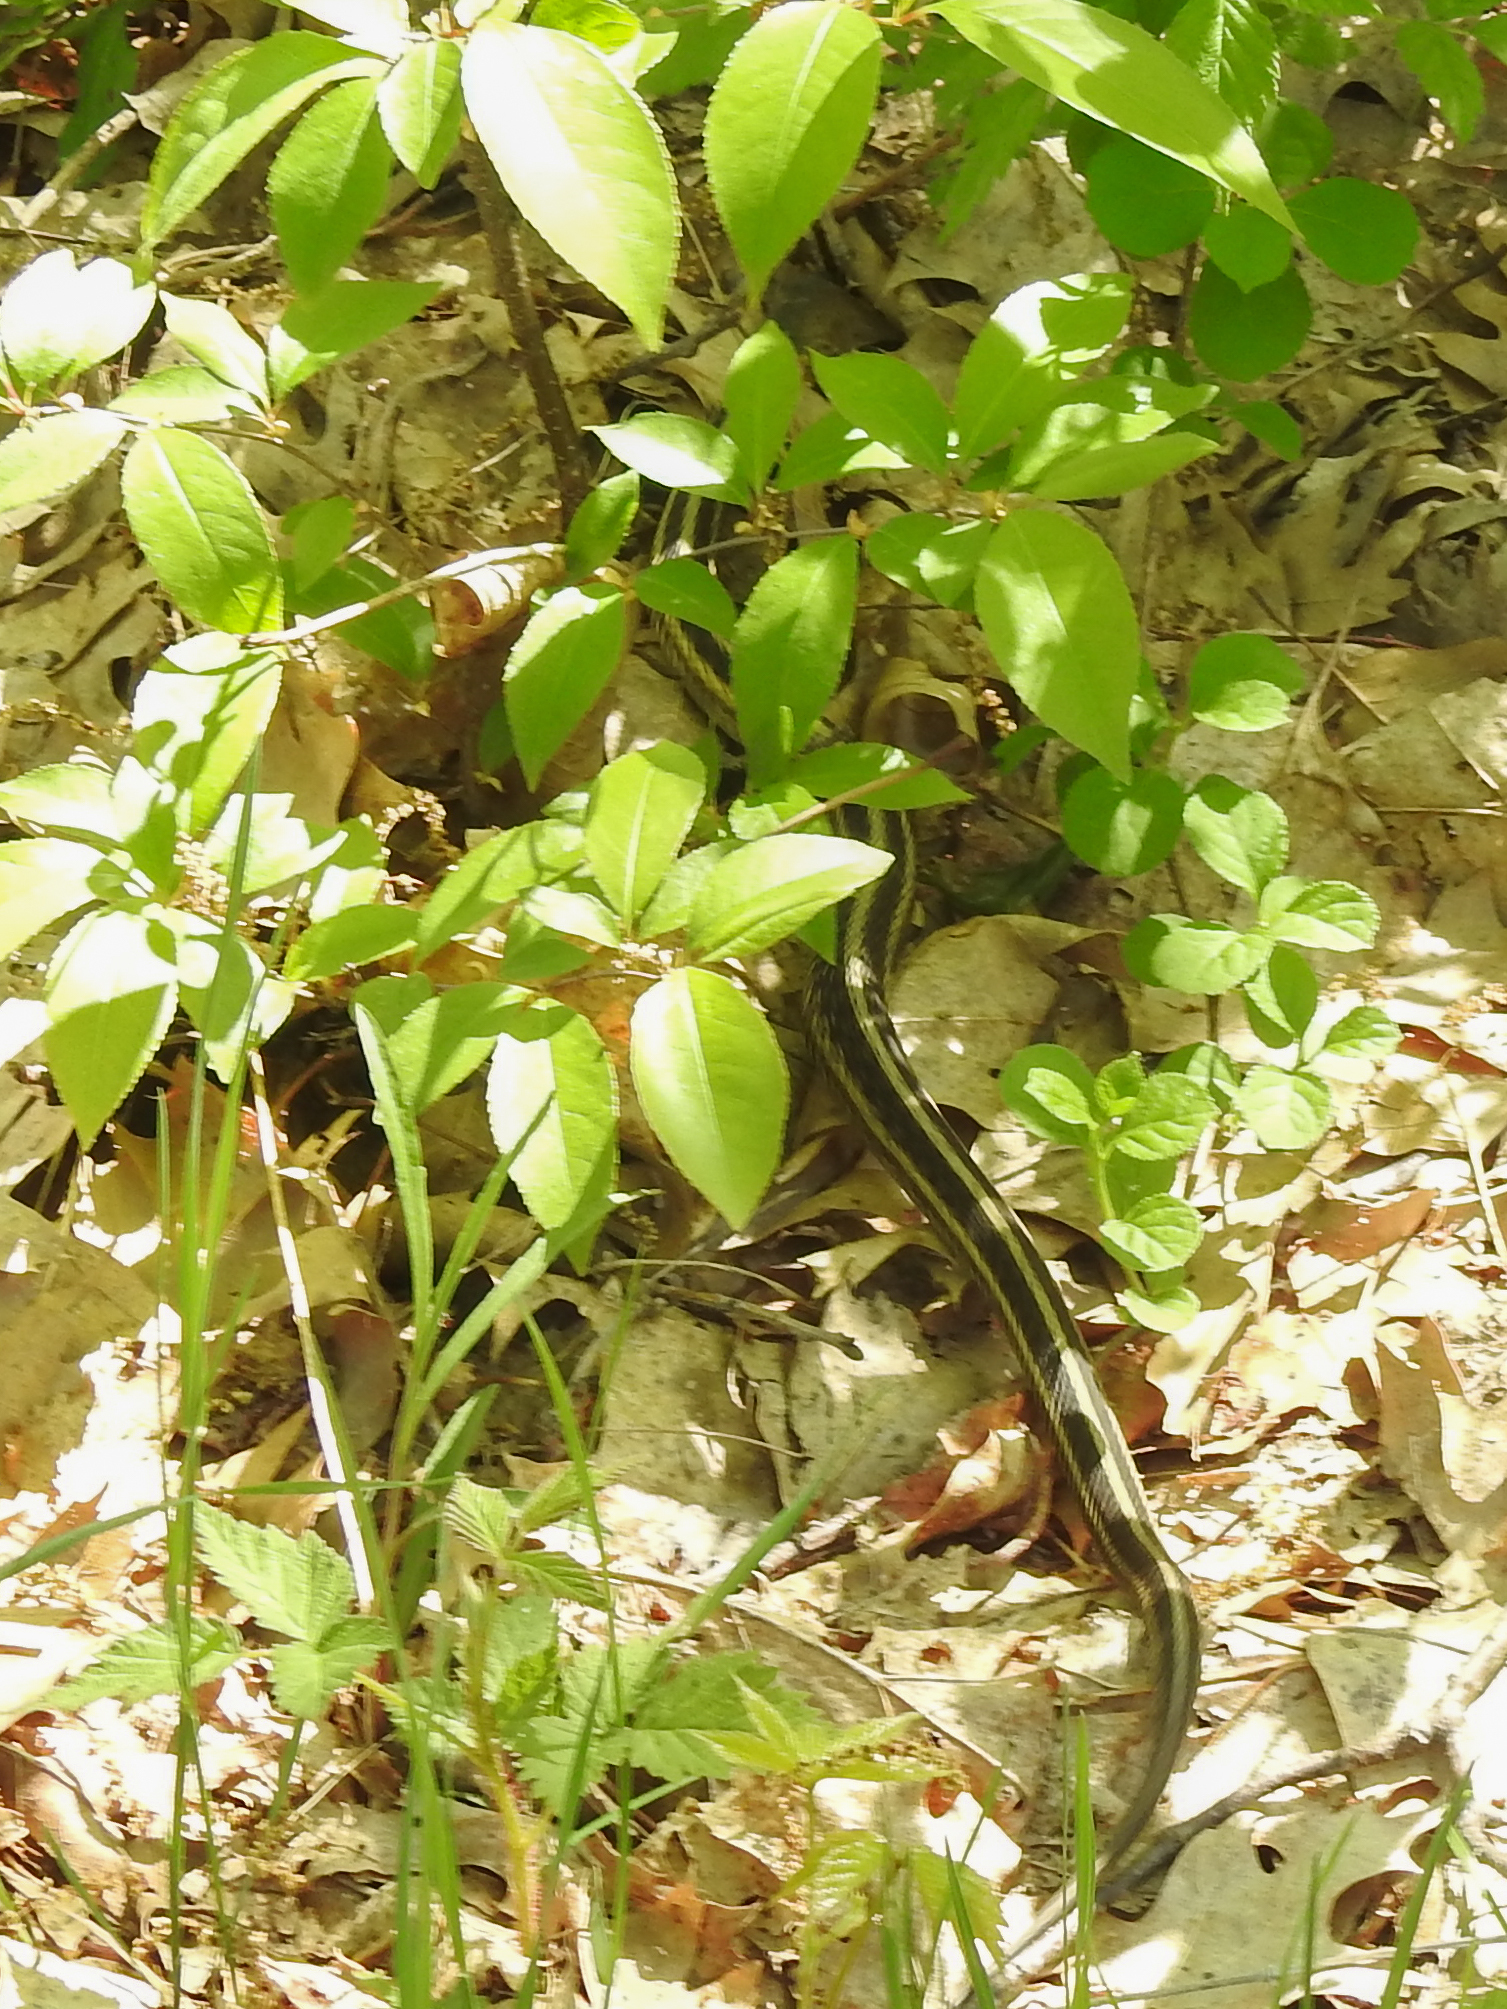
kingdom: Animalia
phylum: Chordata
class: Squamata
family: Colubridae
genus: Thamnophis
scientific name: Thamnophis sirtalis
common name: Common garter snake
